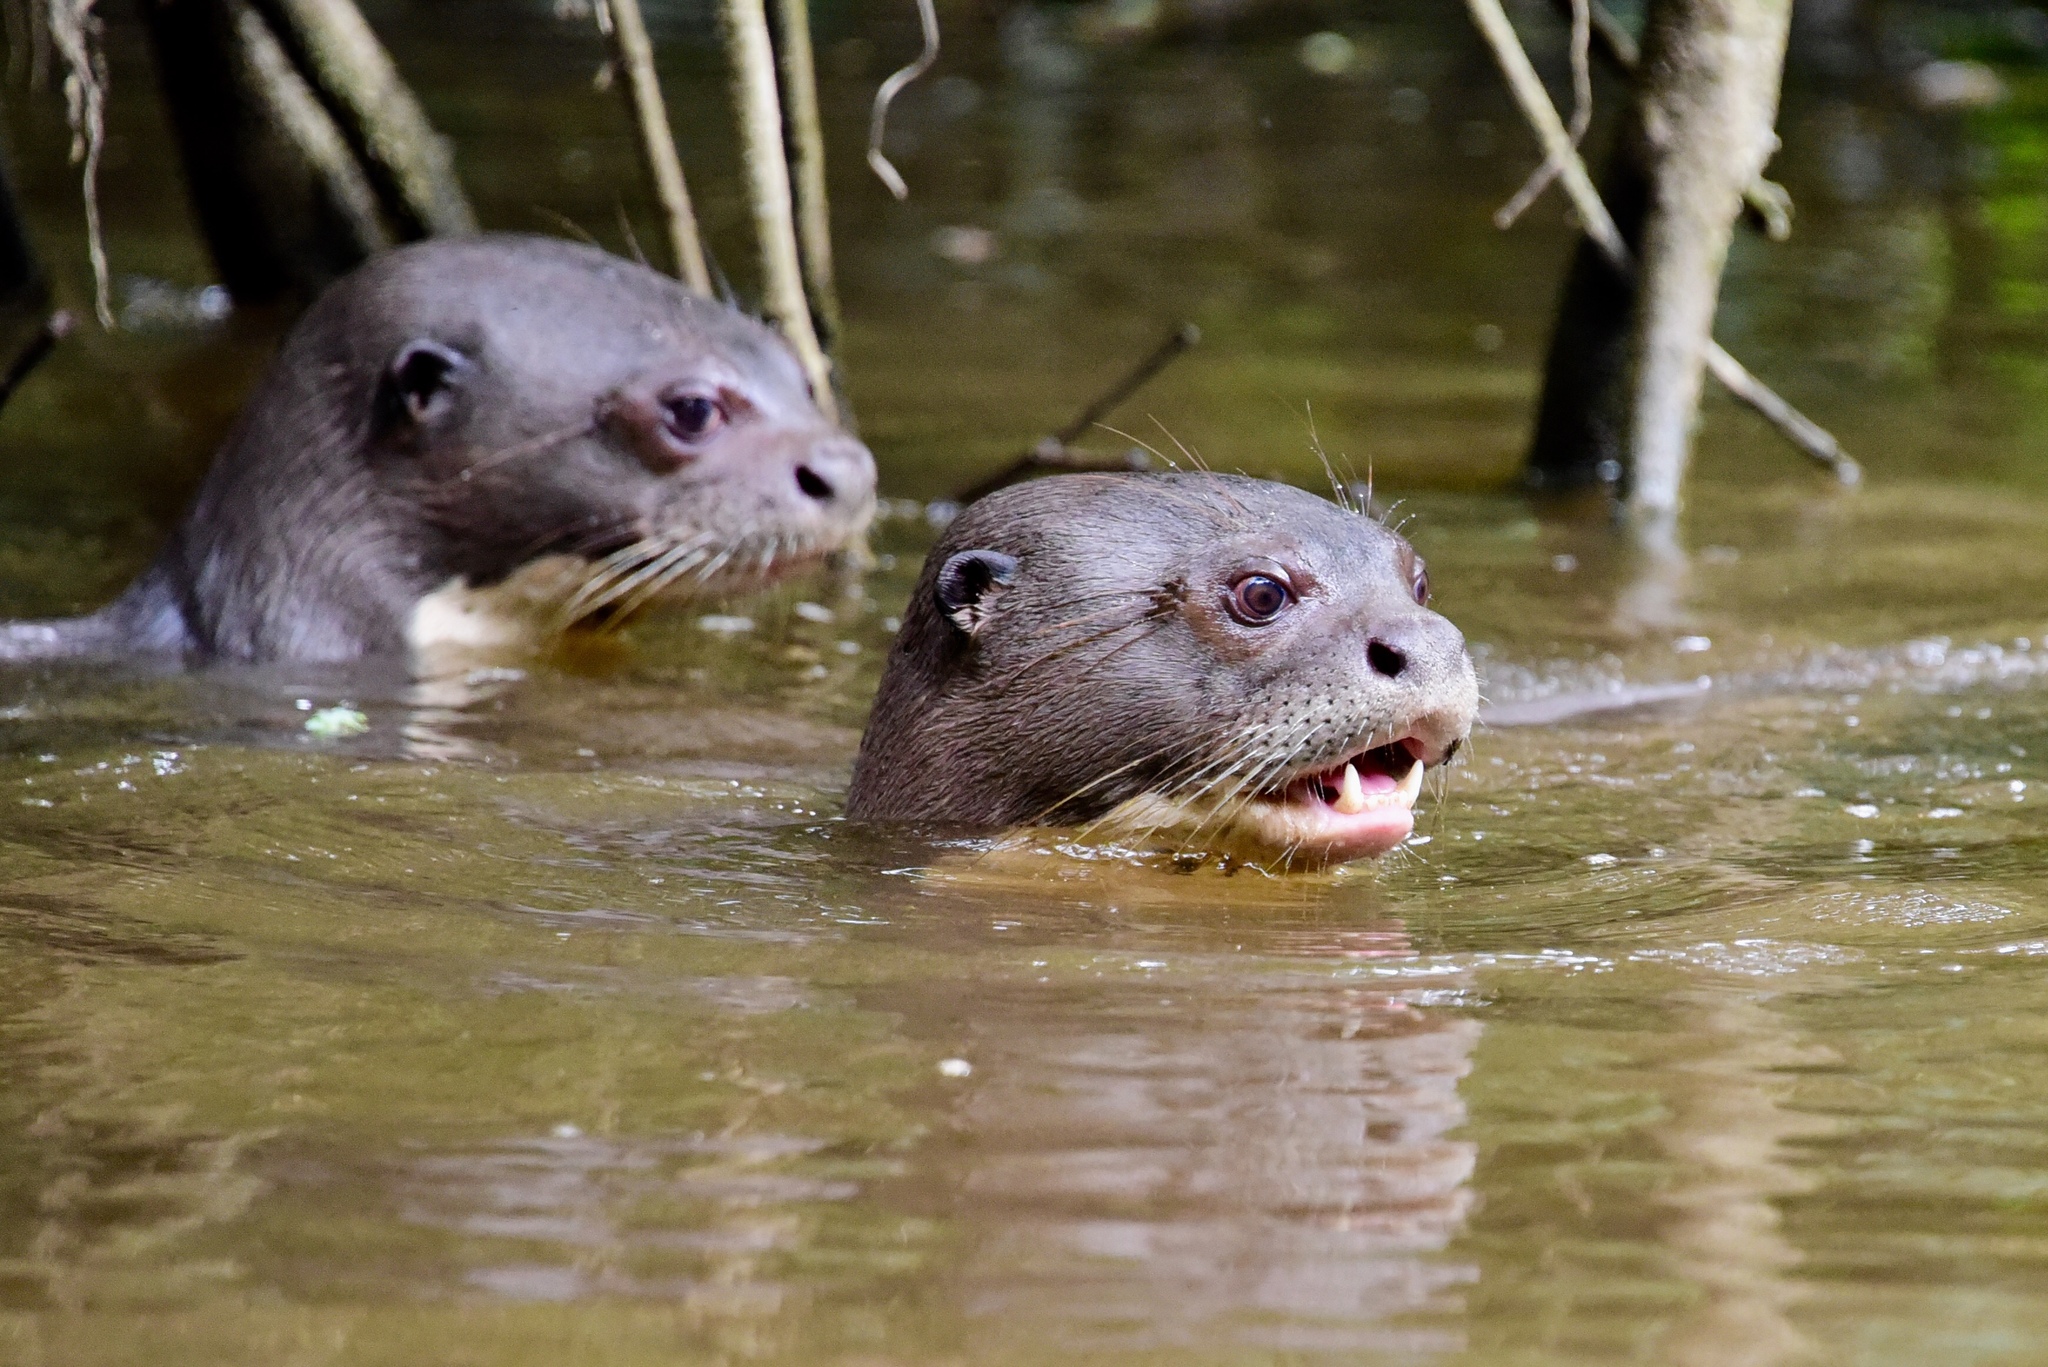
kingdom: Animalia
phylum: Chordata
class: Mammalia
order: Carnivora
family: Mustelidae
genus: Pteronura
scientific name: Pteronura brasiliensis
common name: Giant otter
